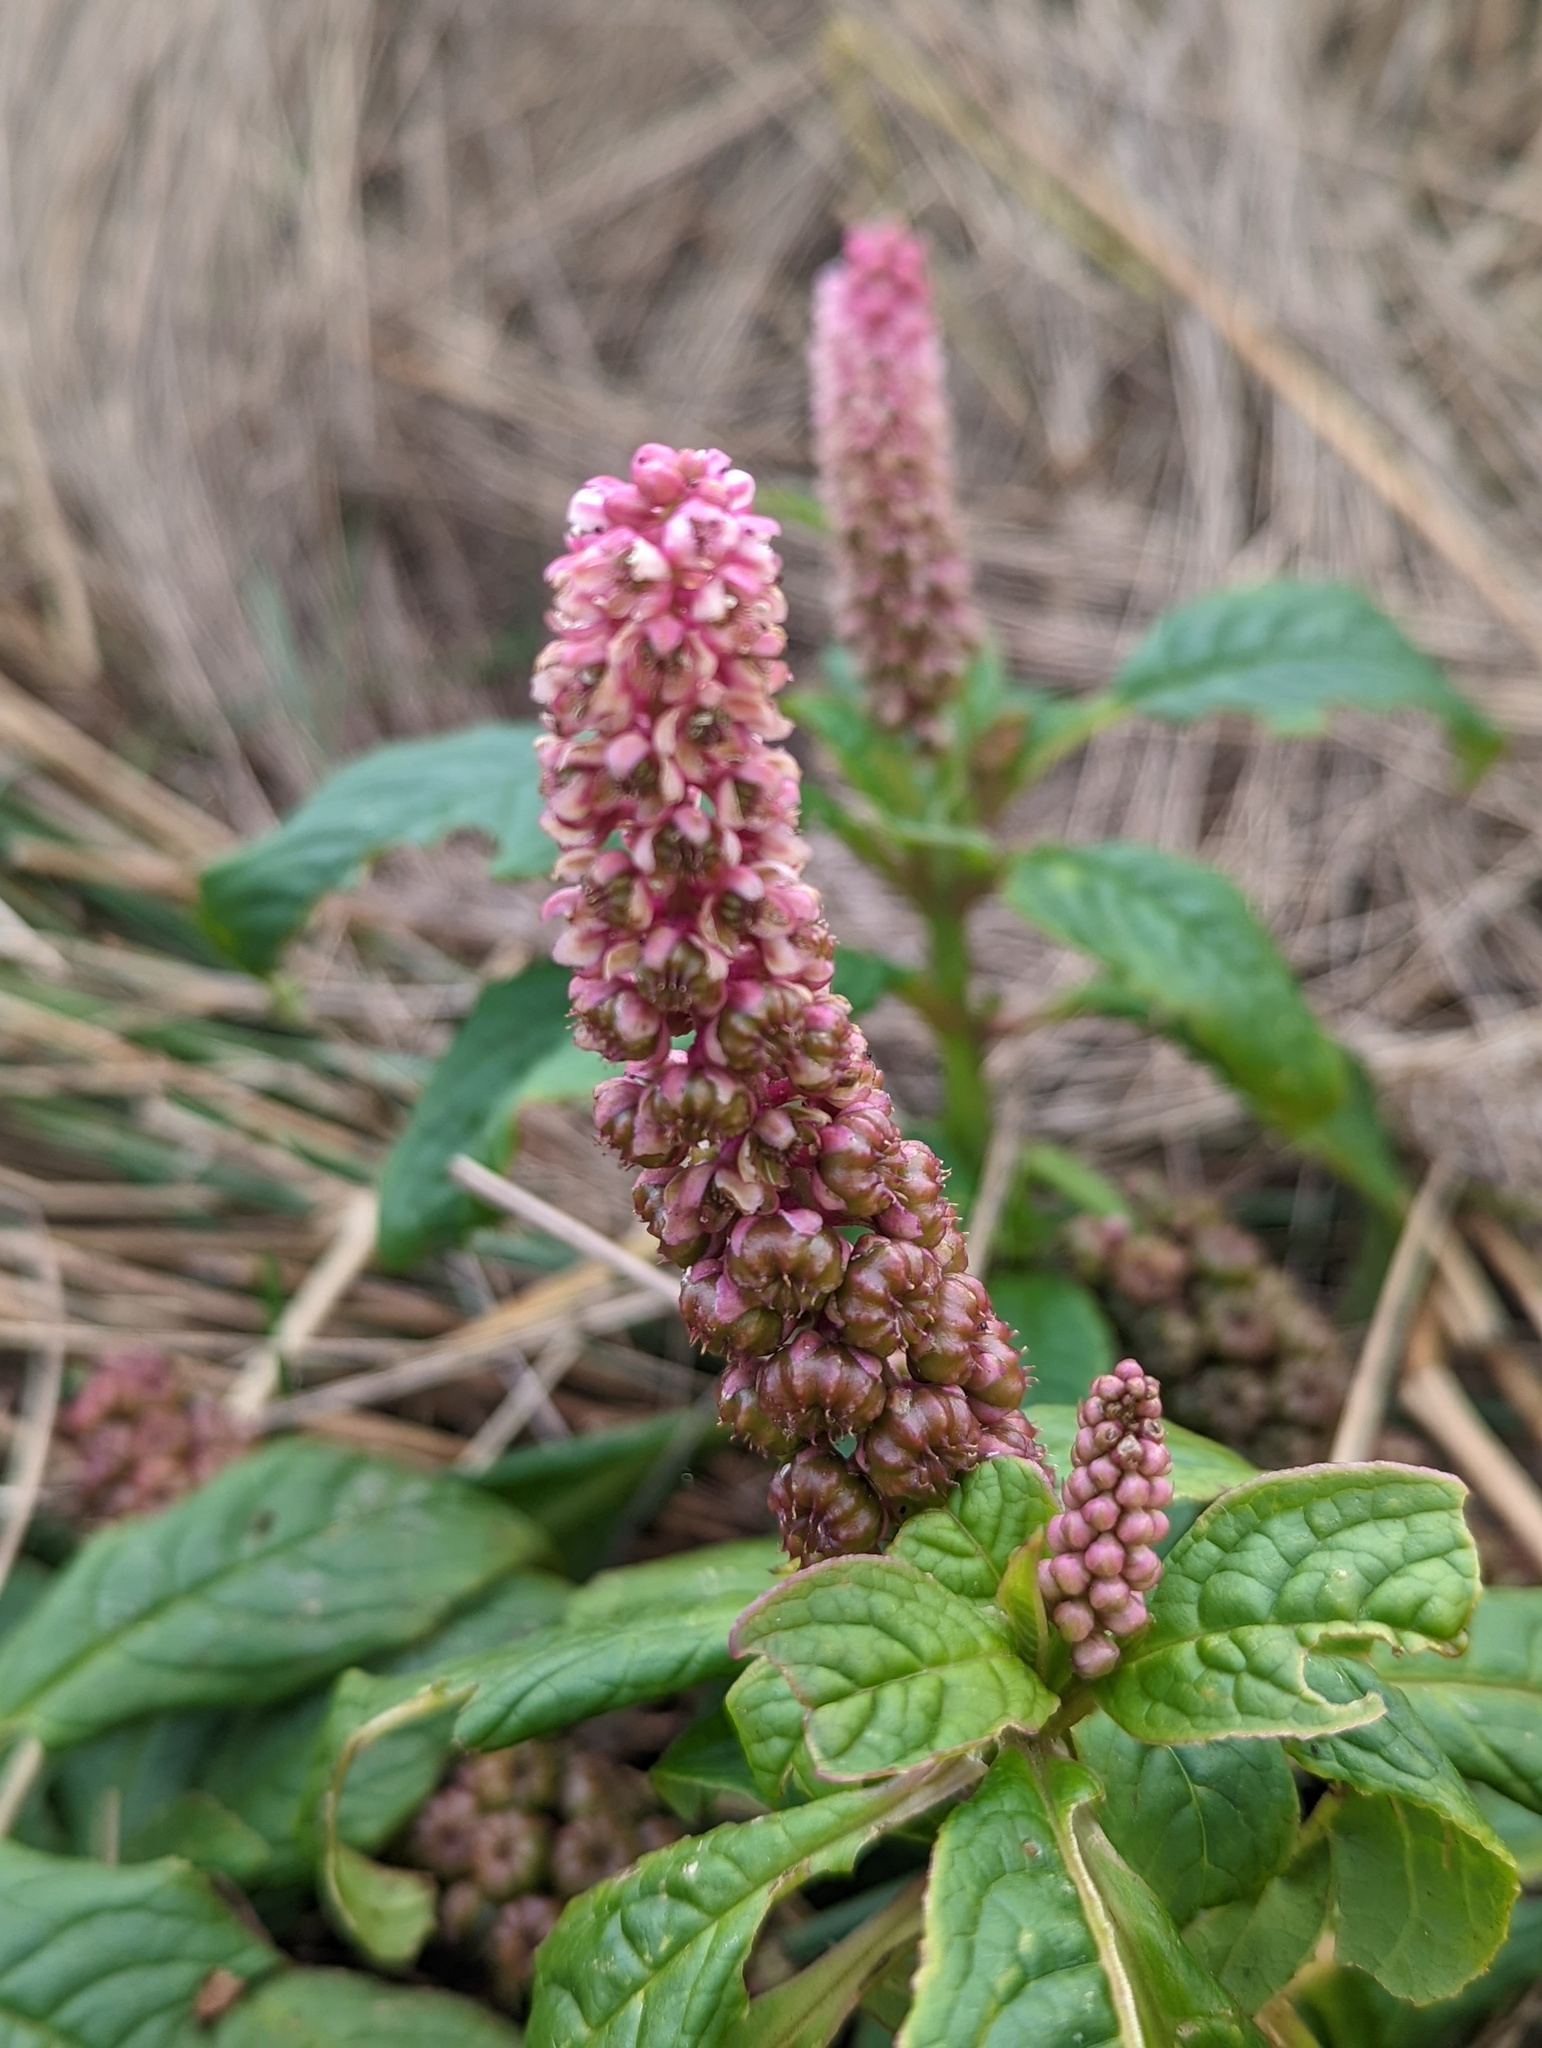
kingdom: Plantae
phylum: Tracheophyta
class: Magnoliopsida
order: Caryophyllales
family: Phytolaccaceae
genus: Phytolacca
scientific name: Phytolacca bogotensis
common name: Southern pokeweed
